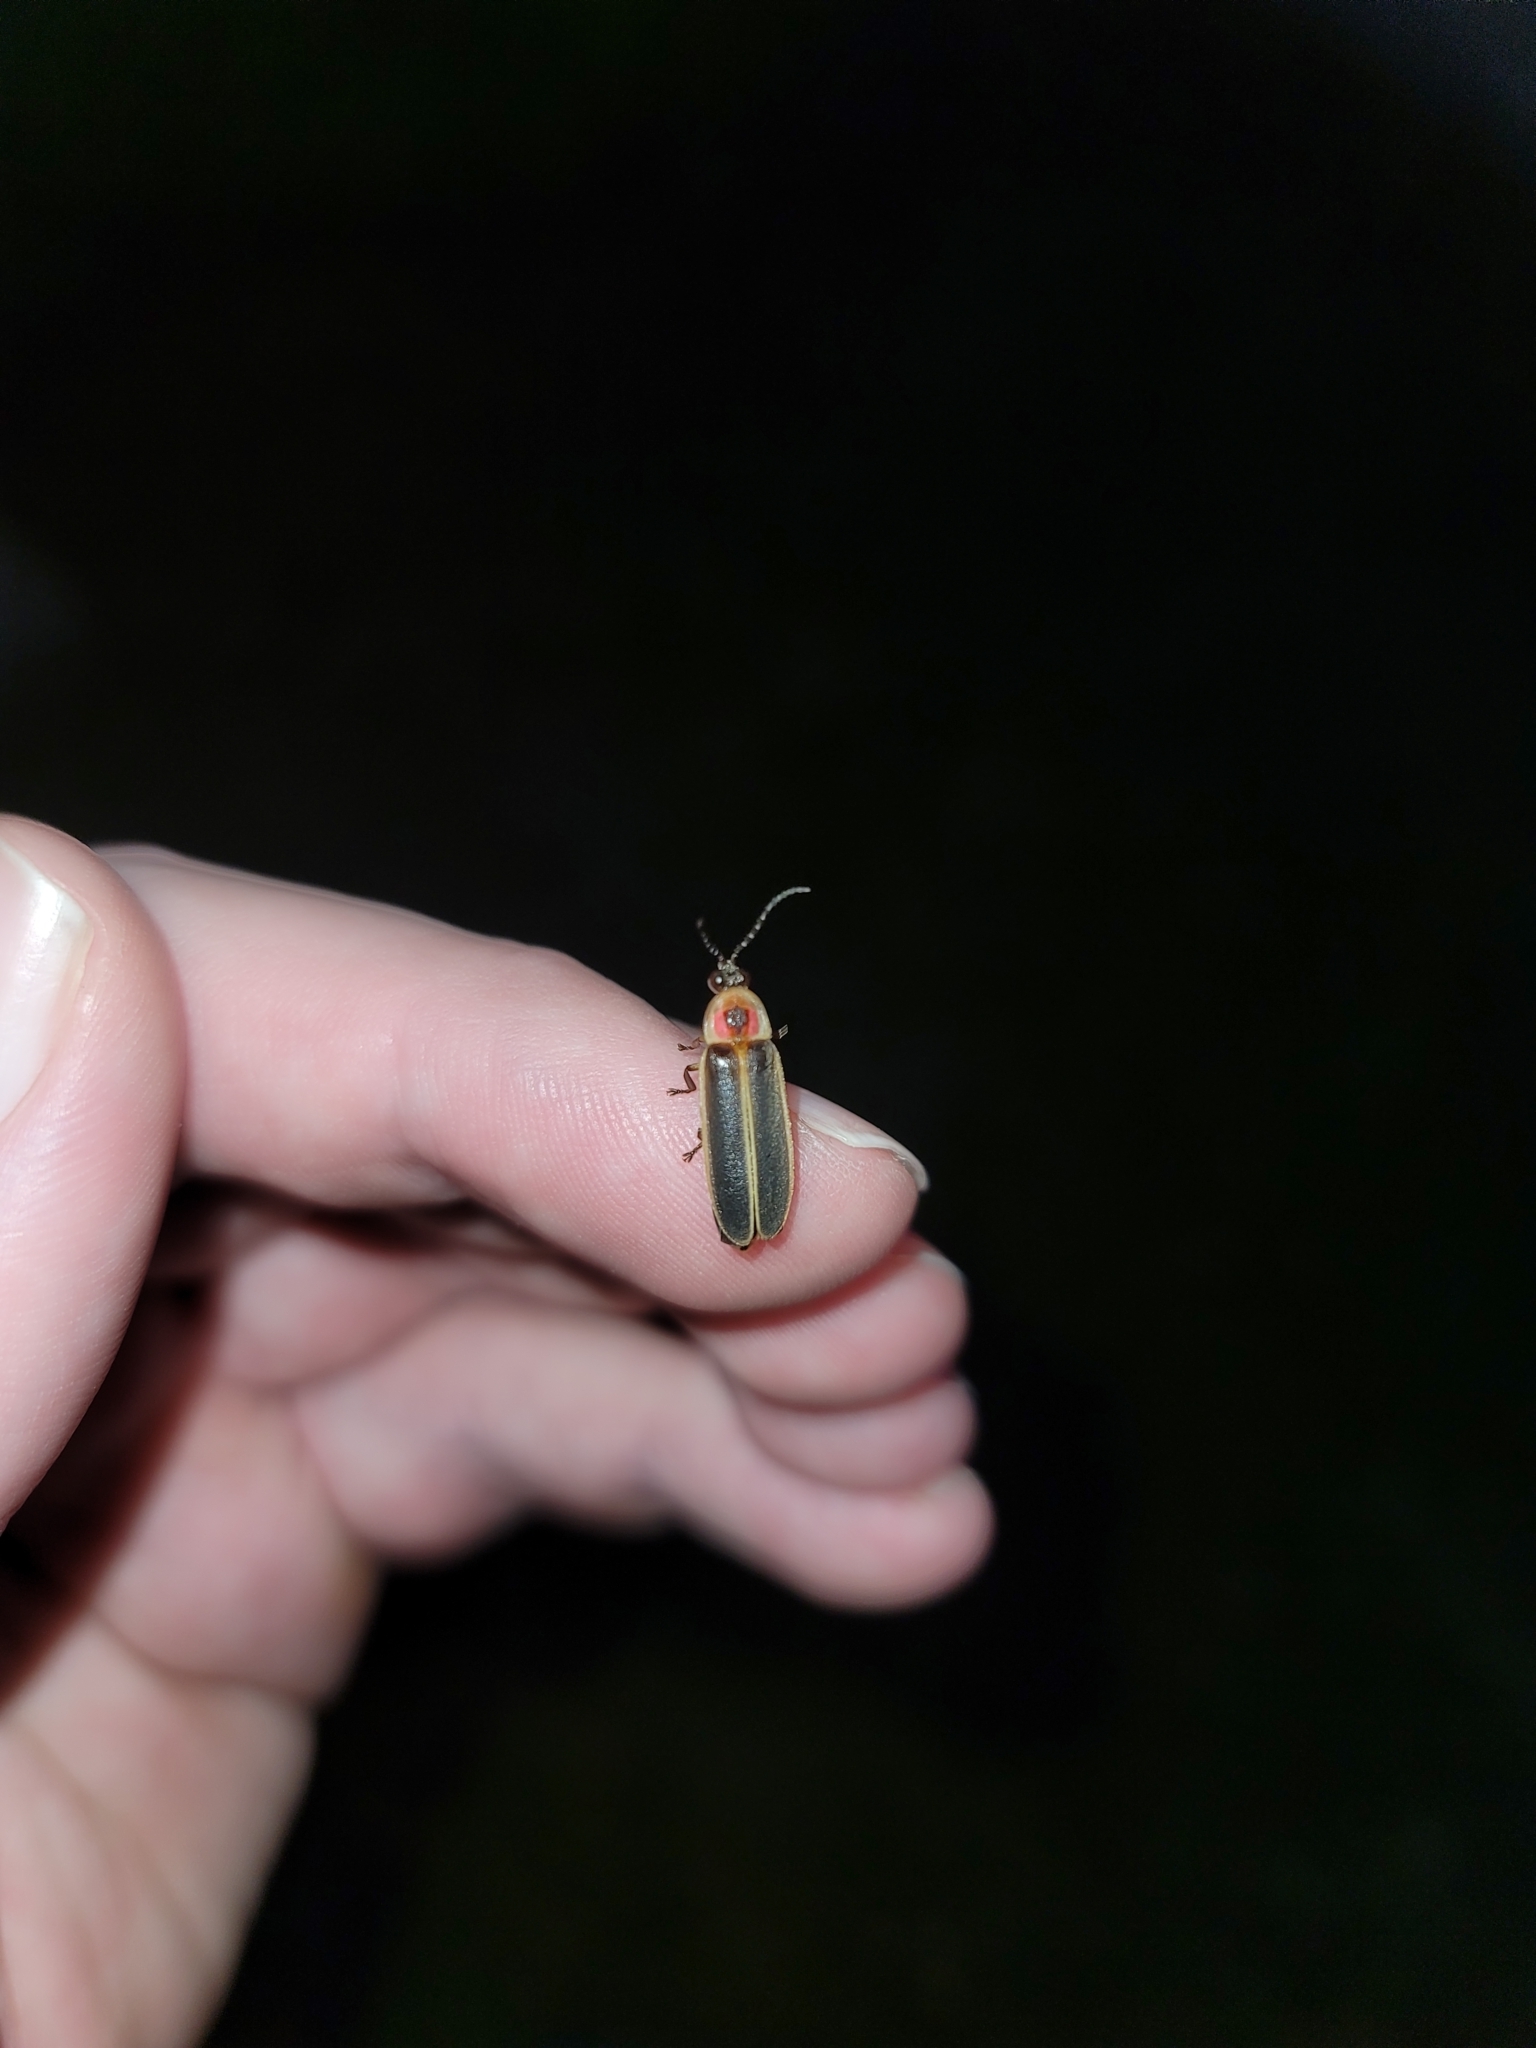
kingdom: Animalia
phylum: Arthropoda
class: Insecta
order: Coleoptera
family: Lampyridae
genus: Photinus
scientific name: Photinus pyralis
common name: Big dipper firefly
